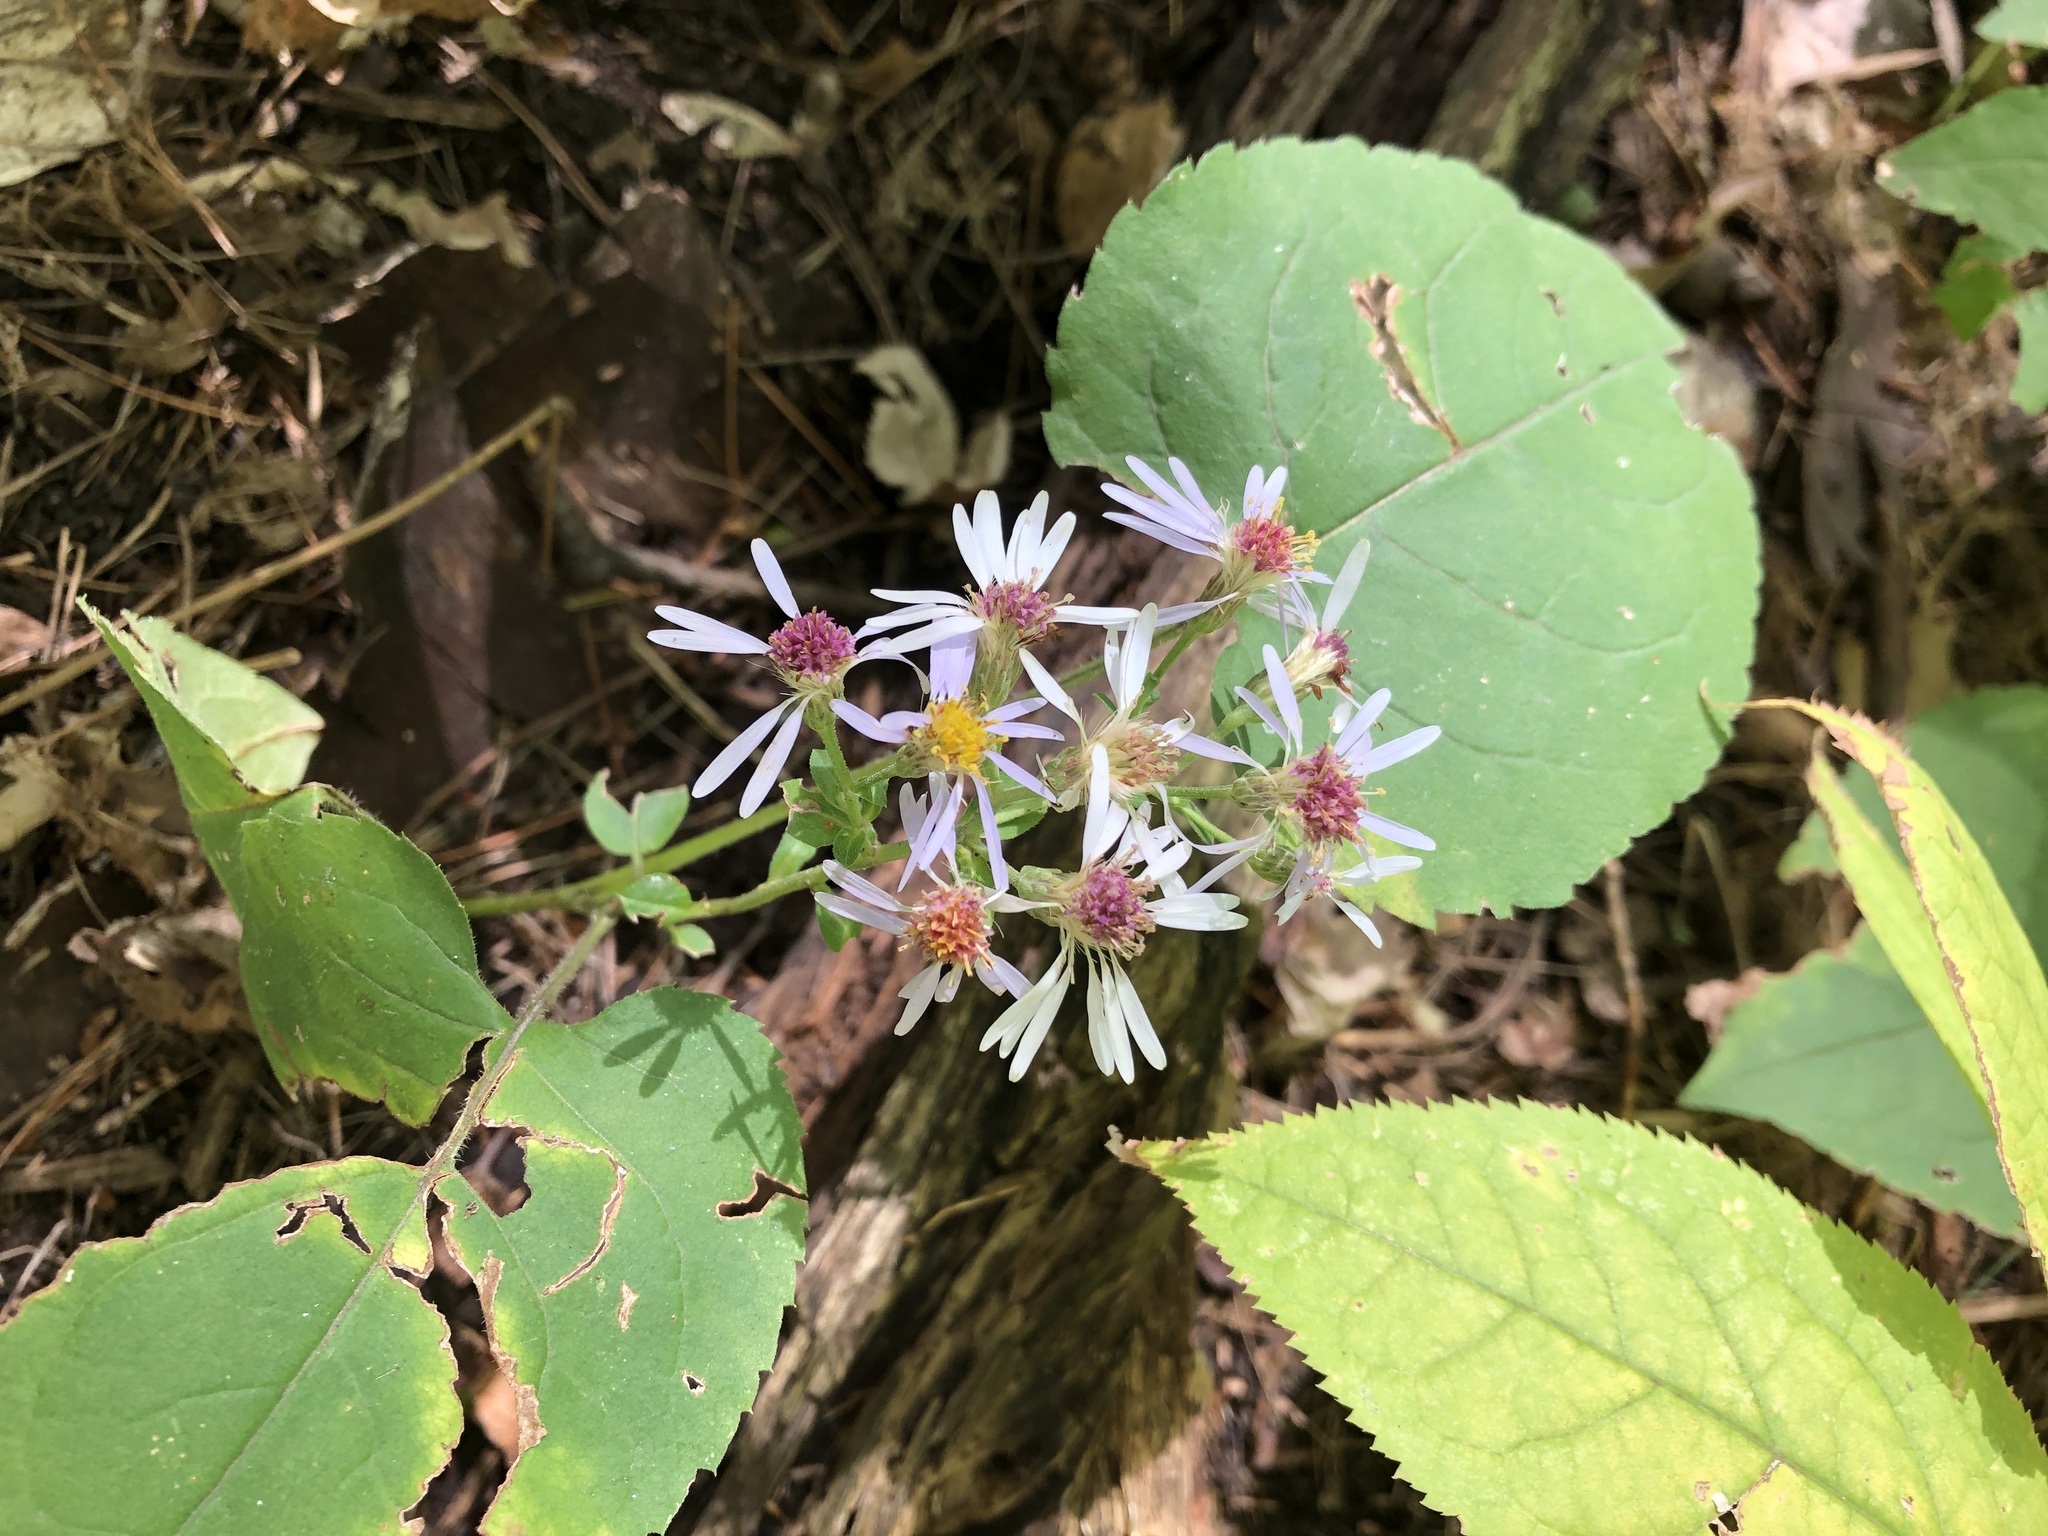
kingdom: Plantae
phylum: Tracheophyta
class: Magnoliopsida
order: Asterales
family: Asteraceae
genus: Eurybia
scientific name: Eurybia macrophylla
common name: Big-leaved aster
